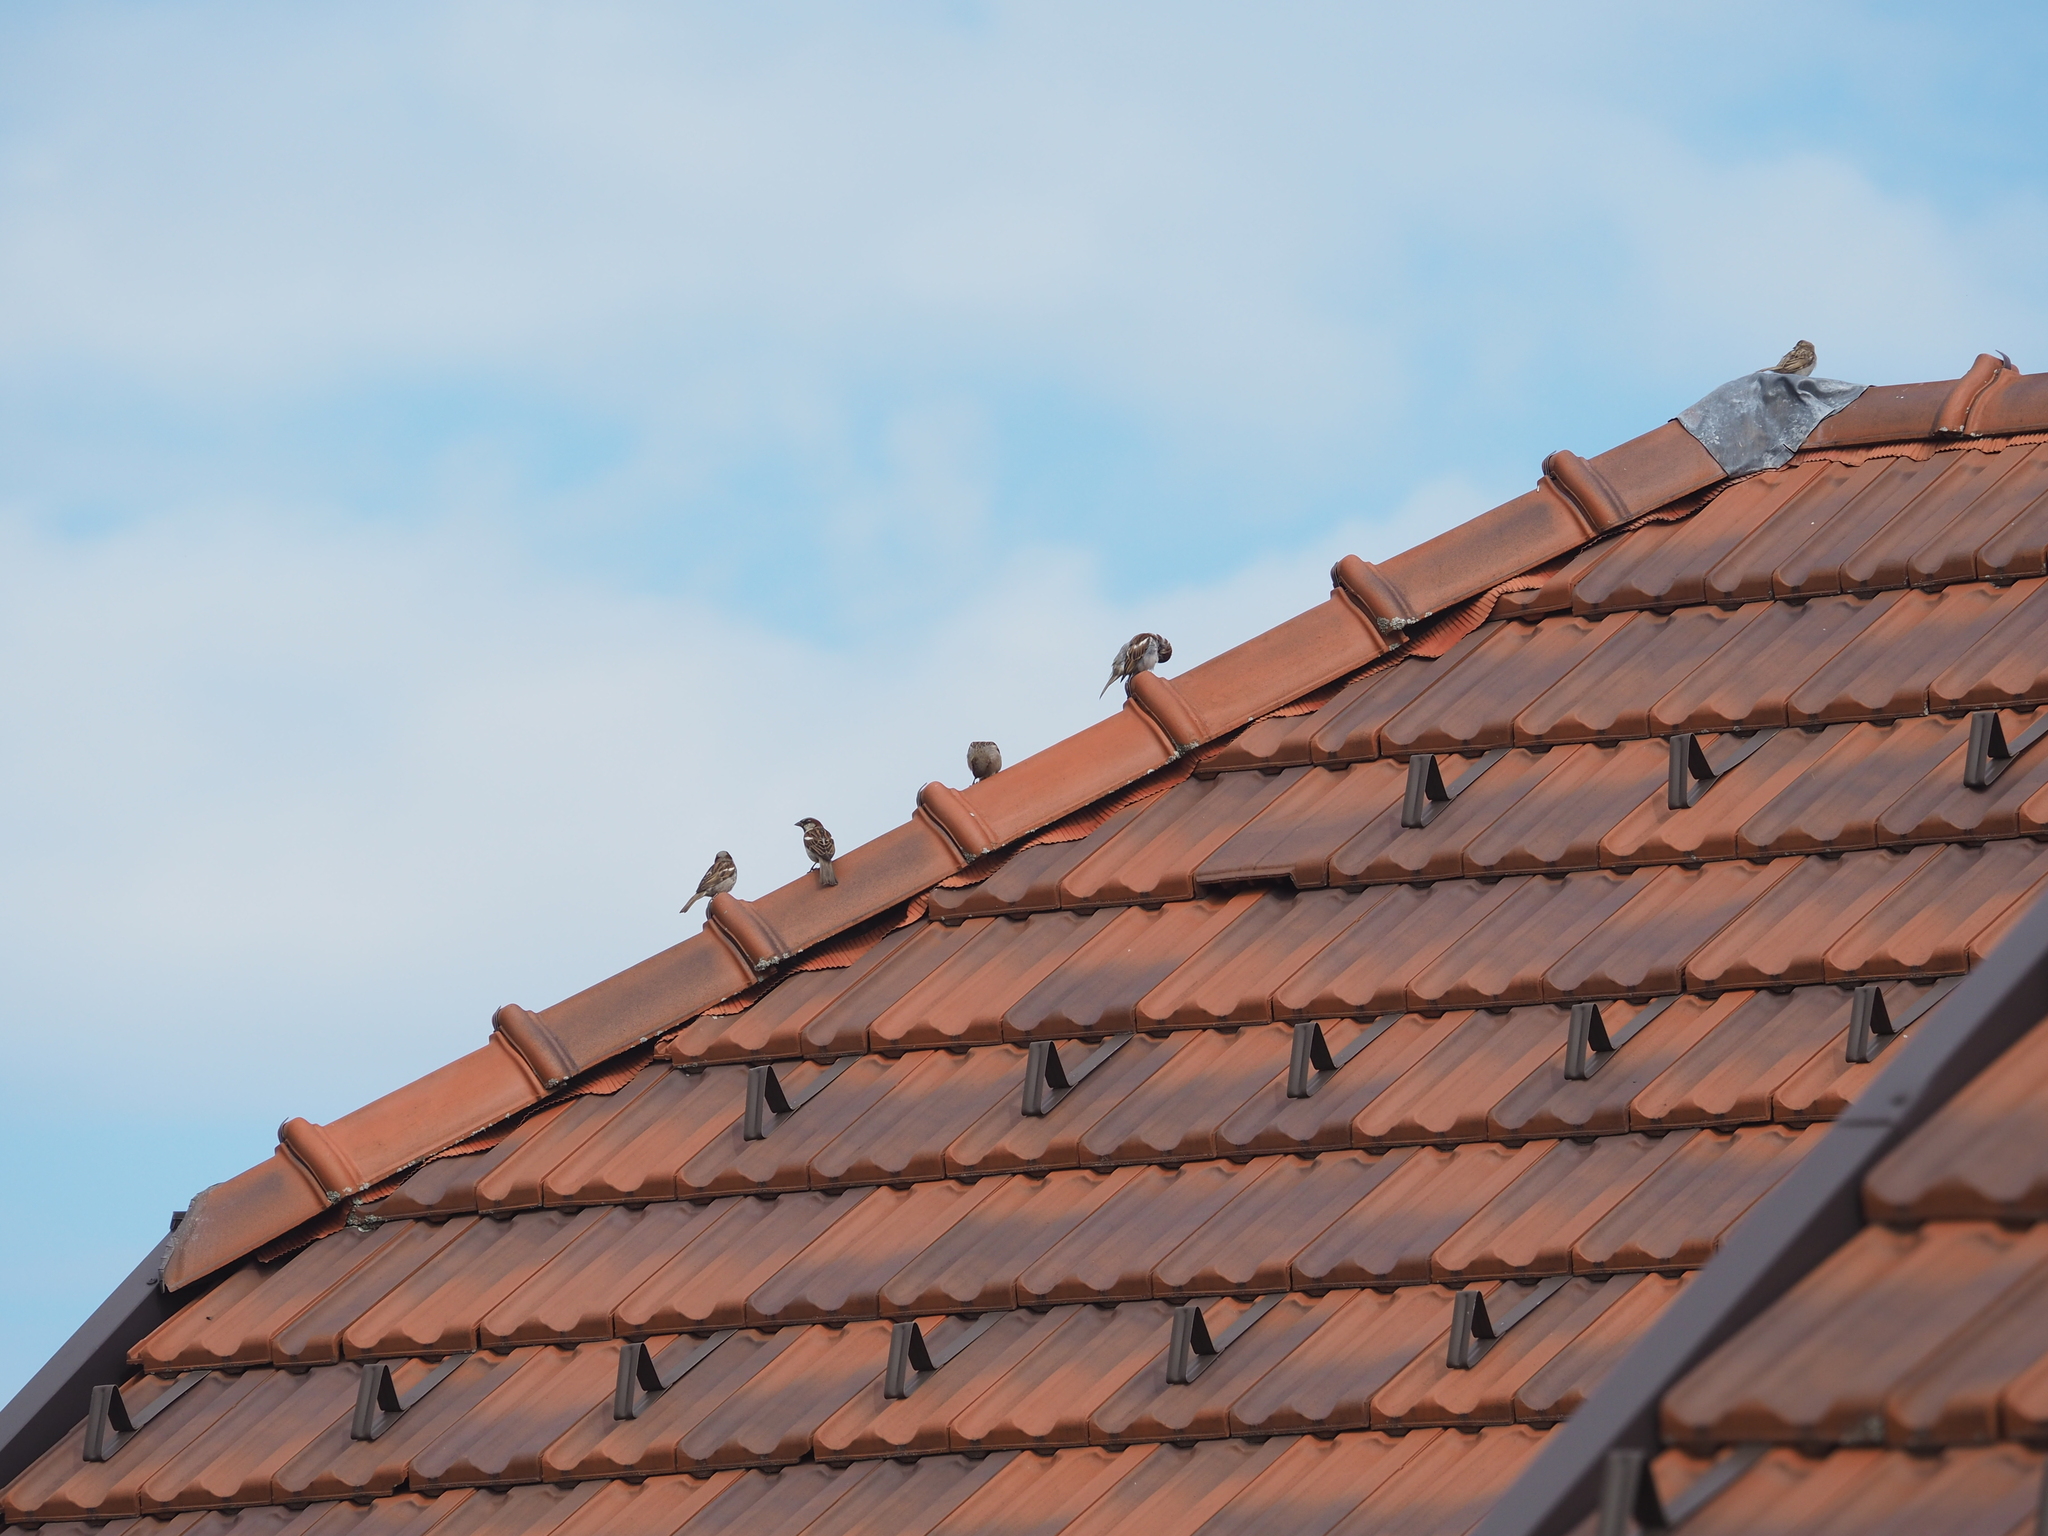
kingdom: Animalia
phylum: Chordata
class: Aves
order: Passeriformes
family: Passeridae
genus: Passer
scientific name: Passer domesticus
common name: House sparrow
